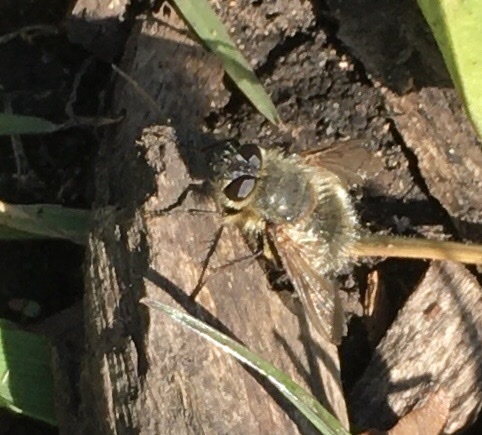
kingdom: Animalia
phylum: Arthropoda
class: Insecta
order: Diptera
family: Tachinidae
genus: Tachina
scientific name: Tachina ursina
